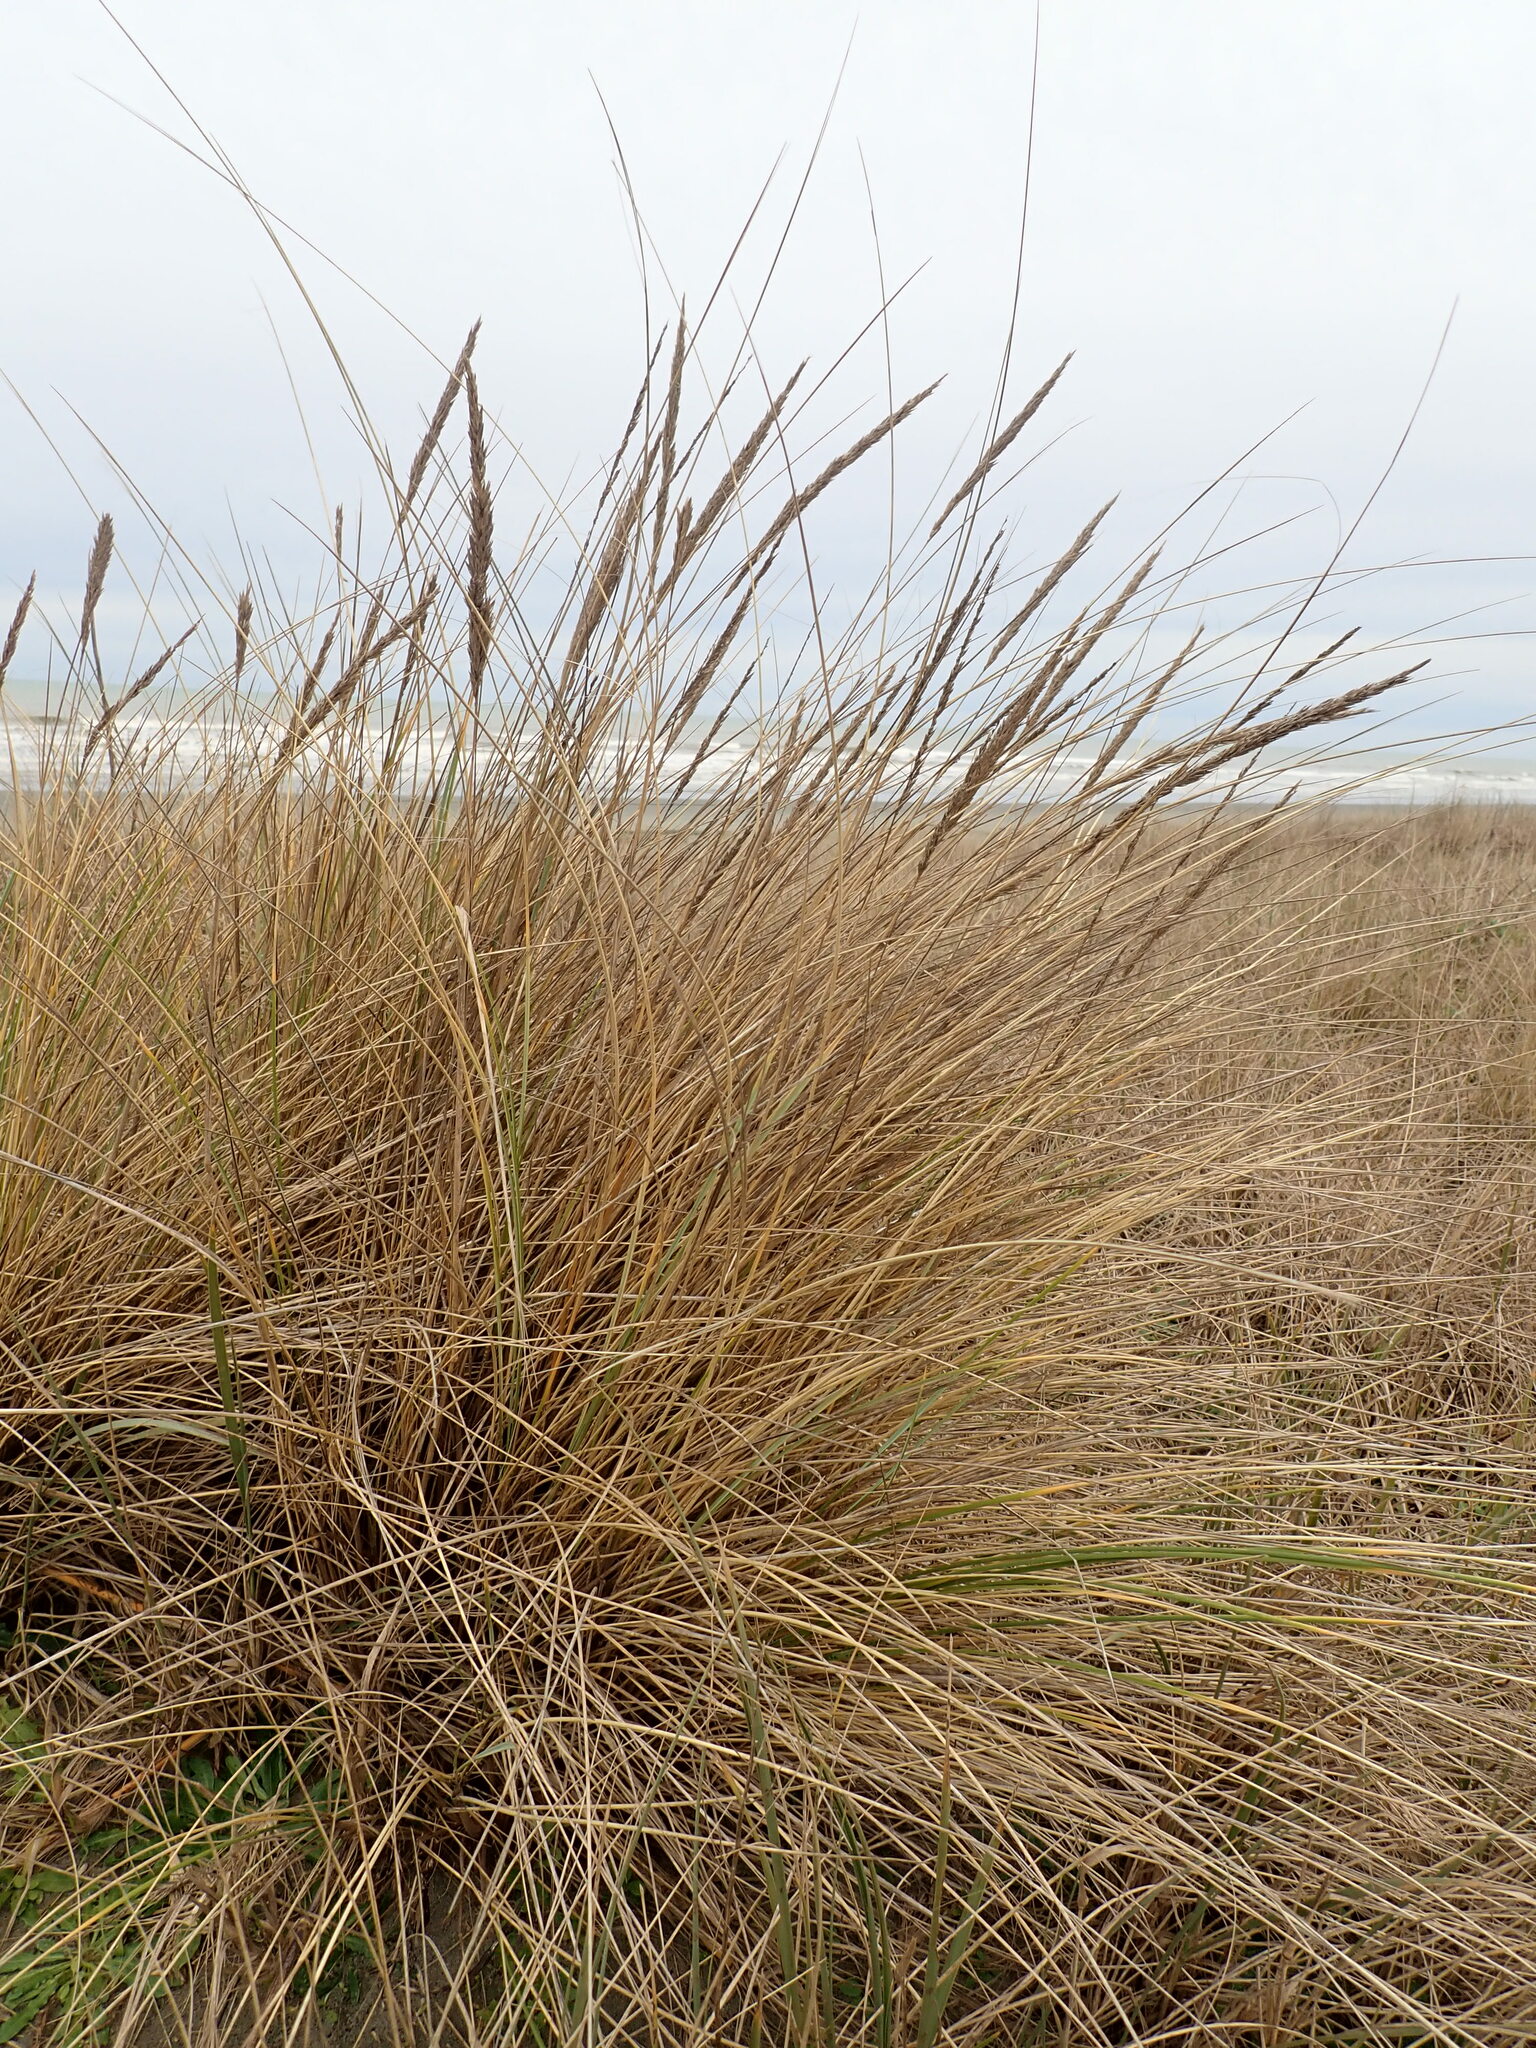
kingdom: Plantae
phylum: Tracheophyta
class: Liliopsida
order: Poales
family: Poaceae
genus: Calamagrostis
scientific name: Calamagrostis arenaria
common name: European beachgrass
